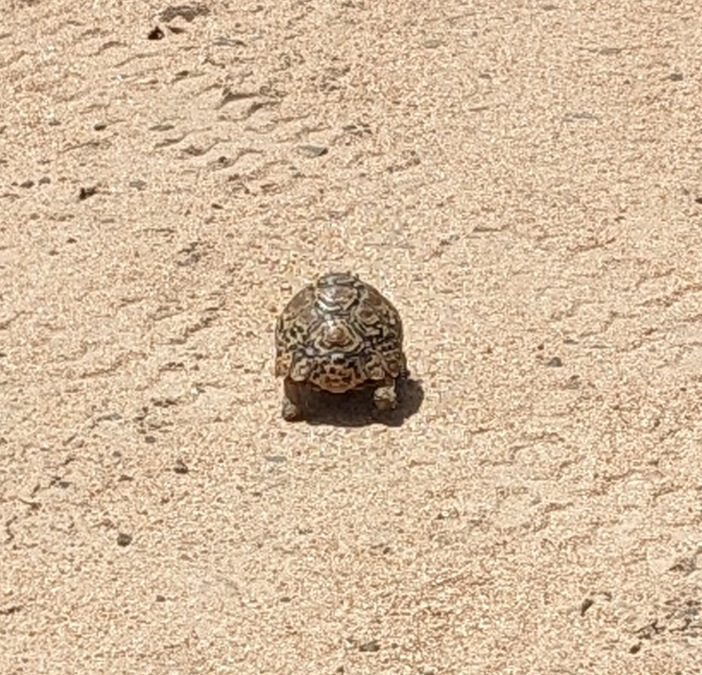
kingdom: Animalia
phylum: Chordata
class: Testudines
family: Testudinidae
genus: Stigmochelys
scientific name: Stigmochelys pardalis
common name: Leopard tortoise
